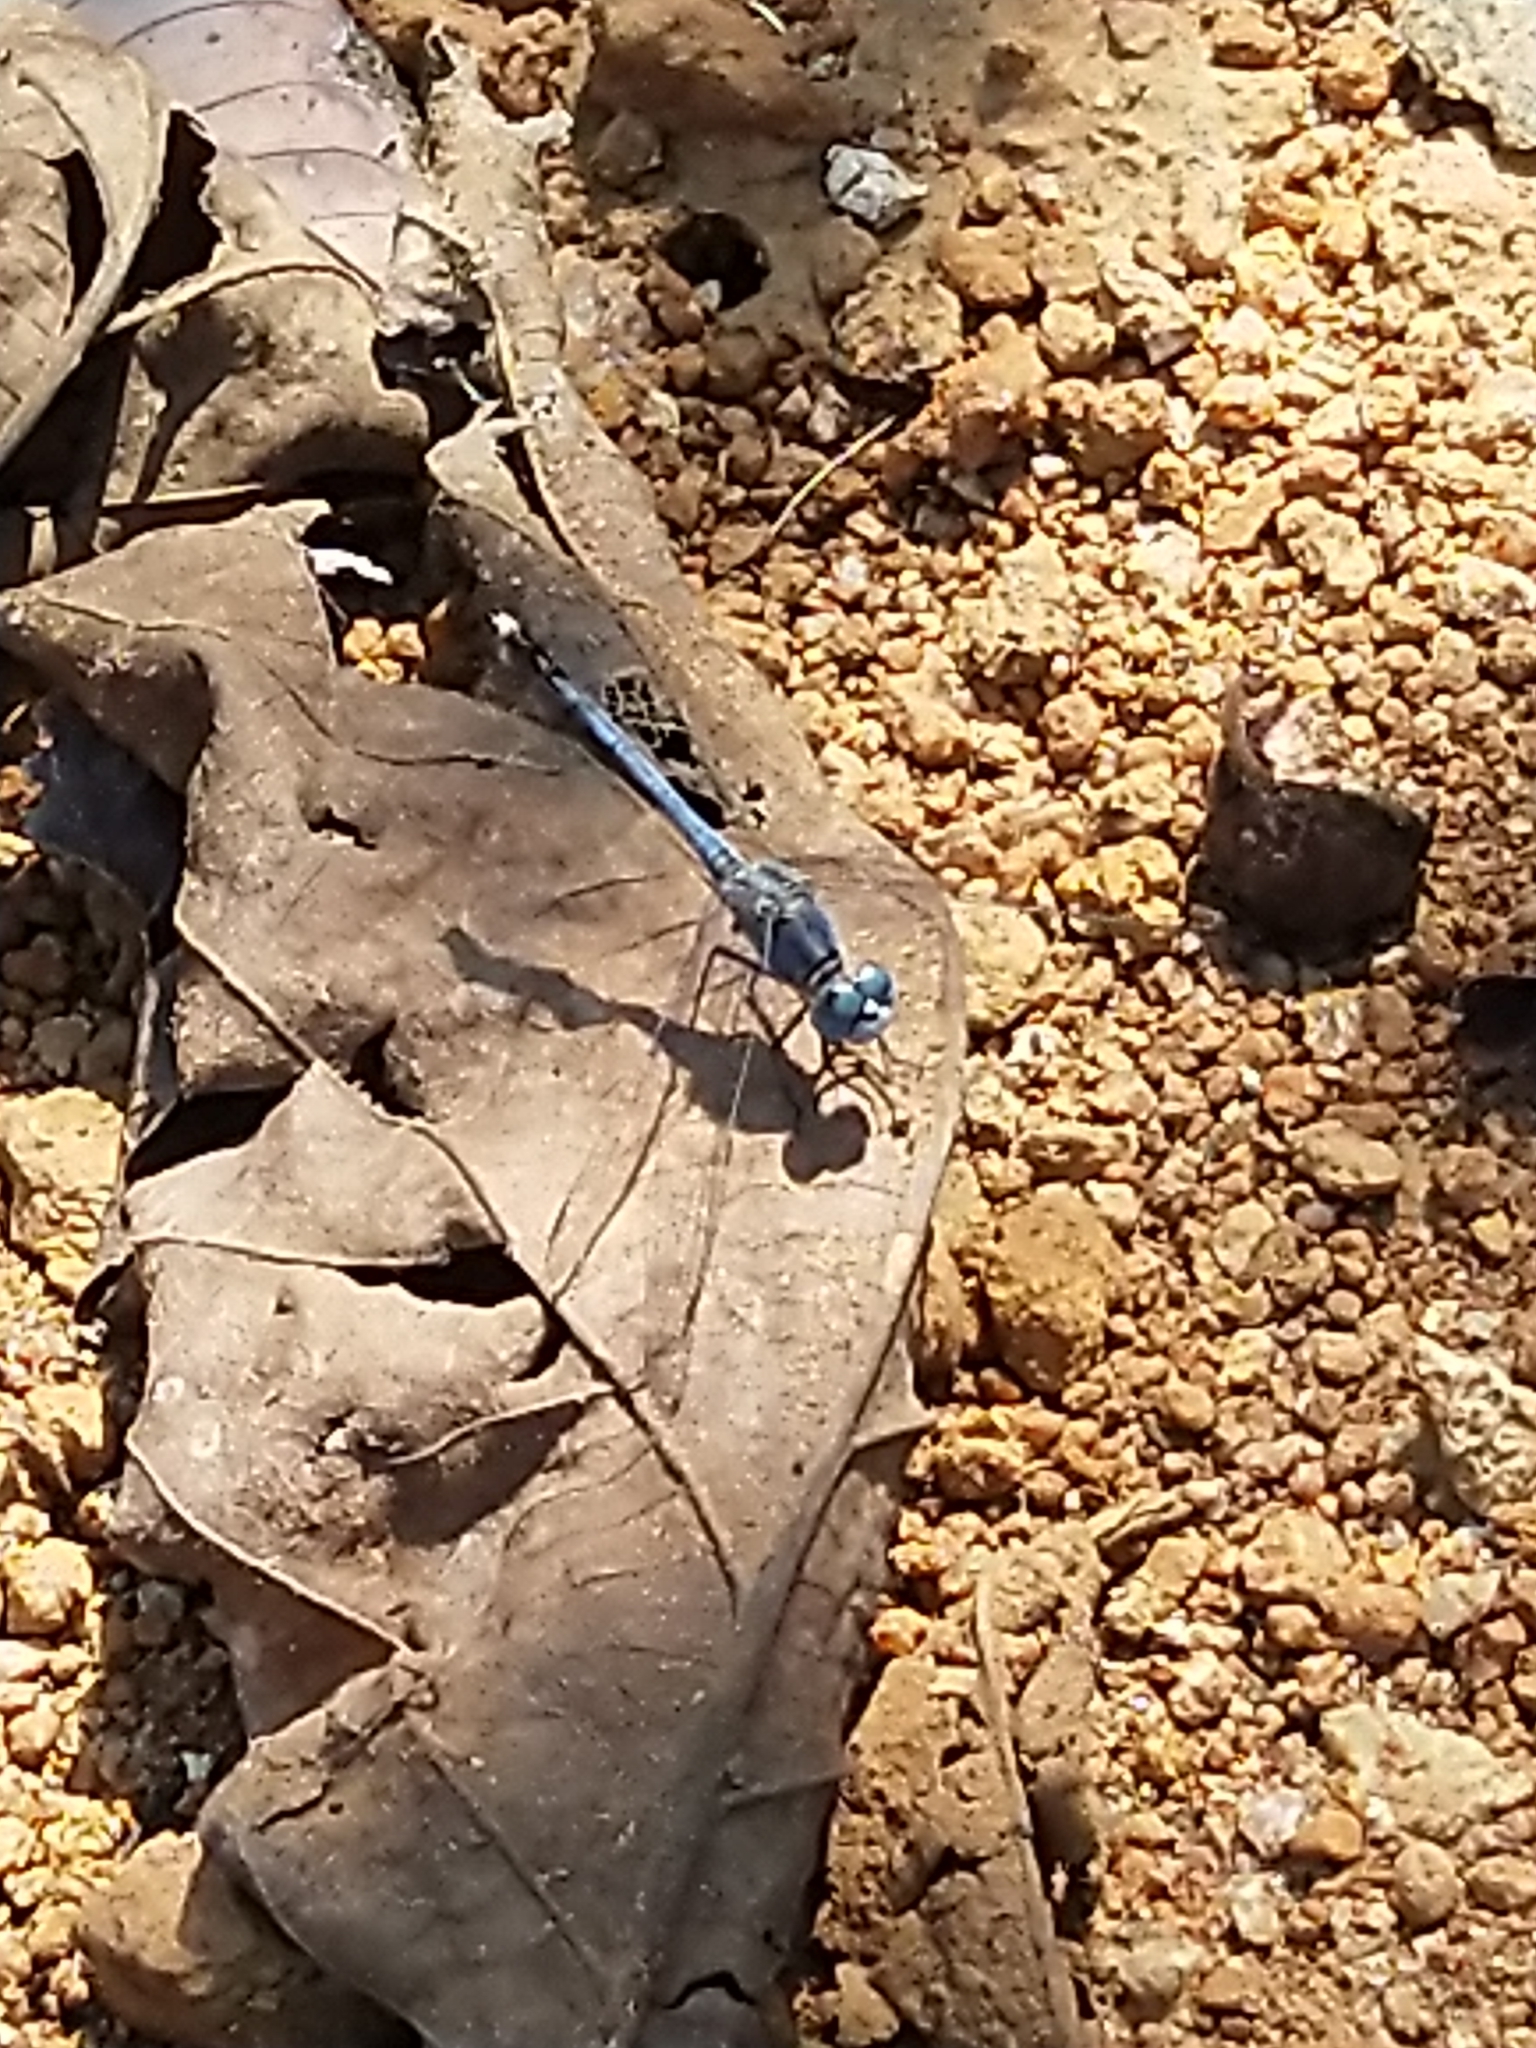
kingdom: Animalia
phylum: Arthropoda
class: Insecta
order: Odonata
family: Libellulidae
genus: Diplacodes
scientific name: Diplacodes trivialis
